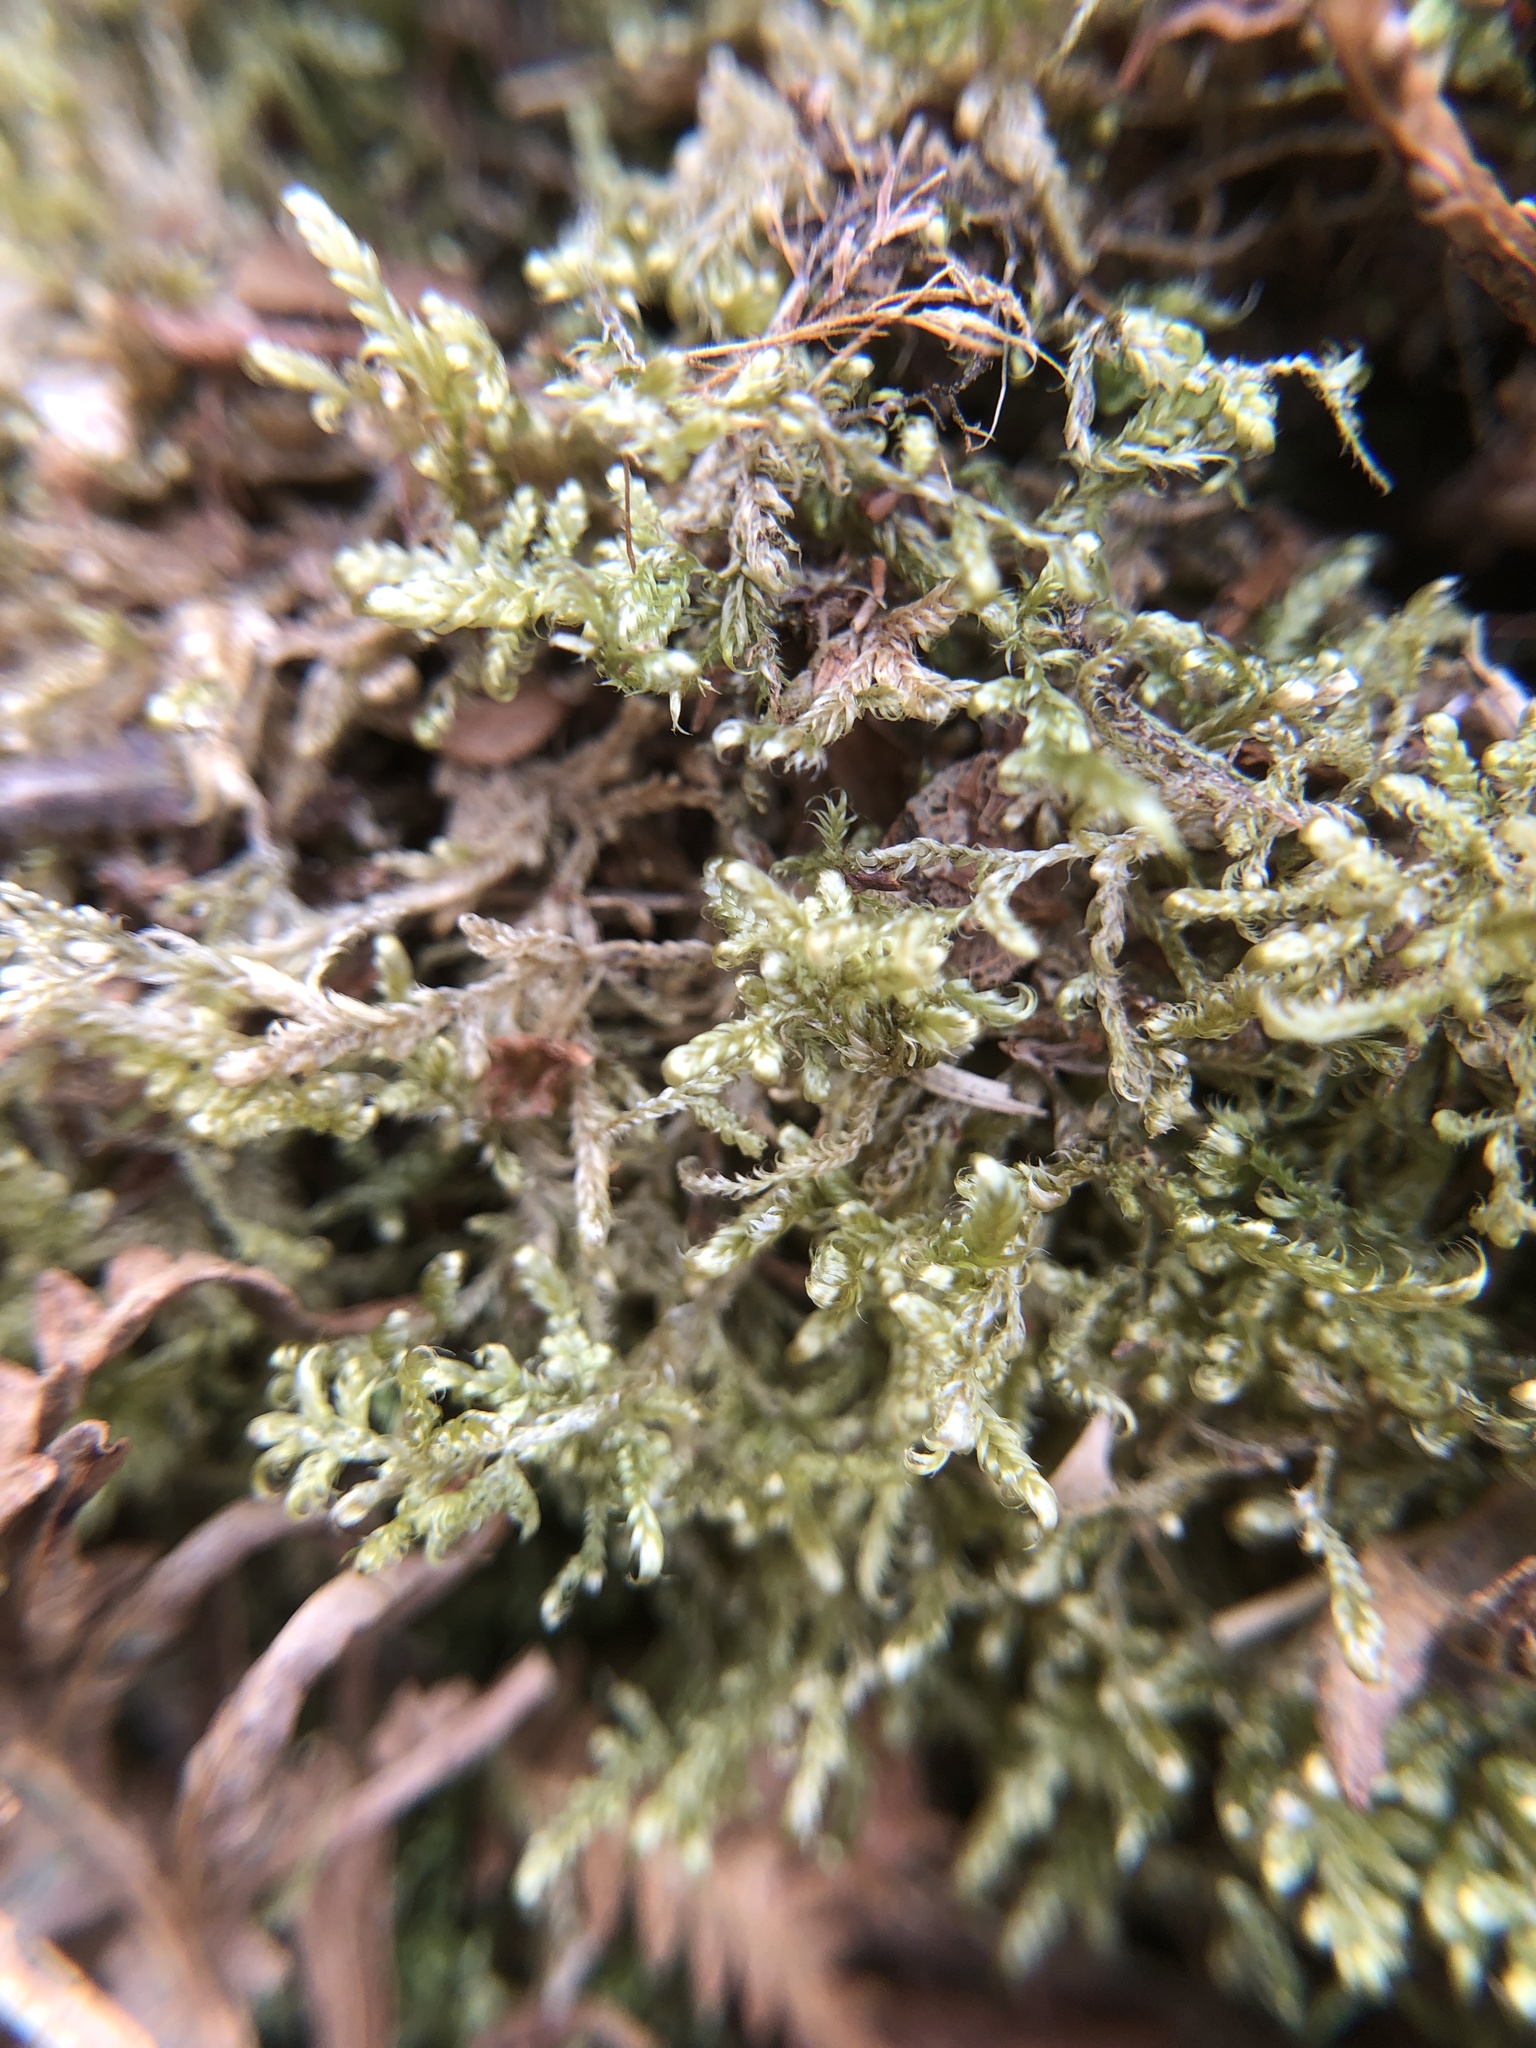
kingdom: Plantae
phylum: Bryophyta
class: Bryopsida
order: Hypnales
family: Hypnaceae
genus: Hypnum
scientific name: Hypnum jutlandicum
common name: Heath plait-moss
